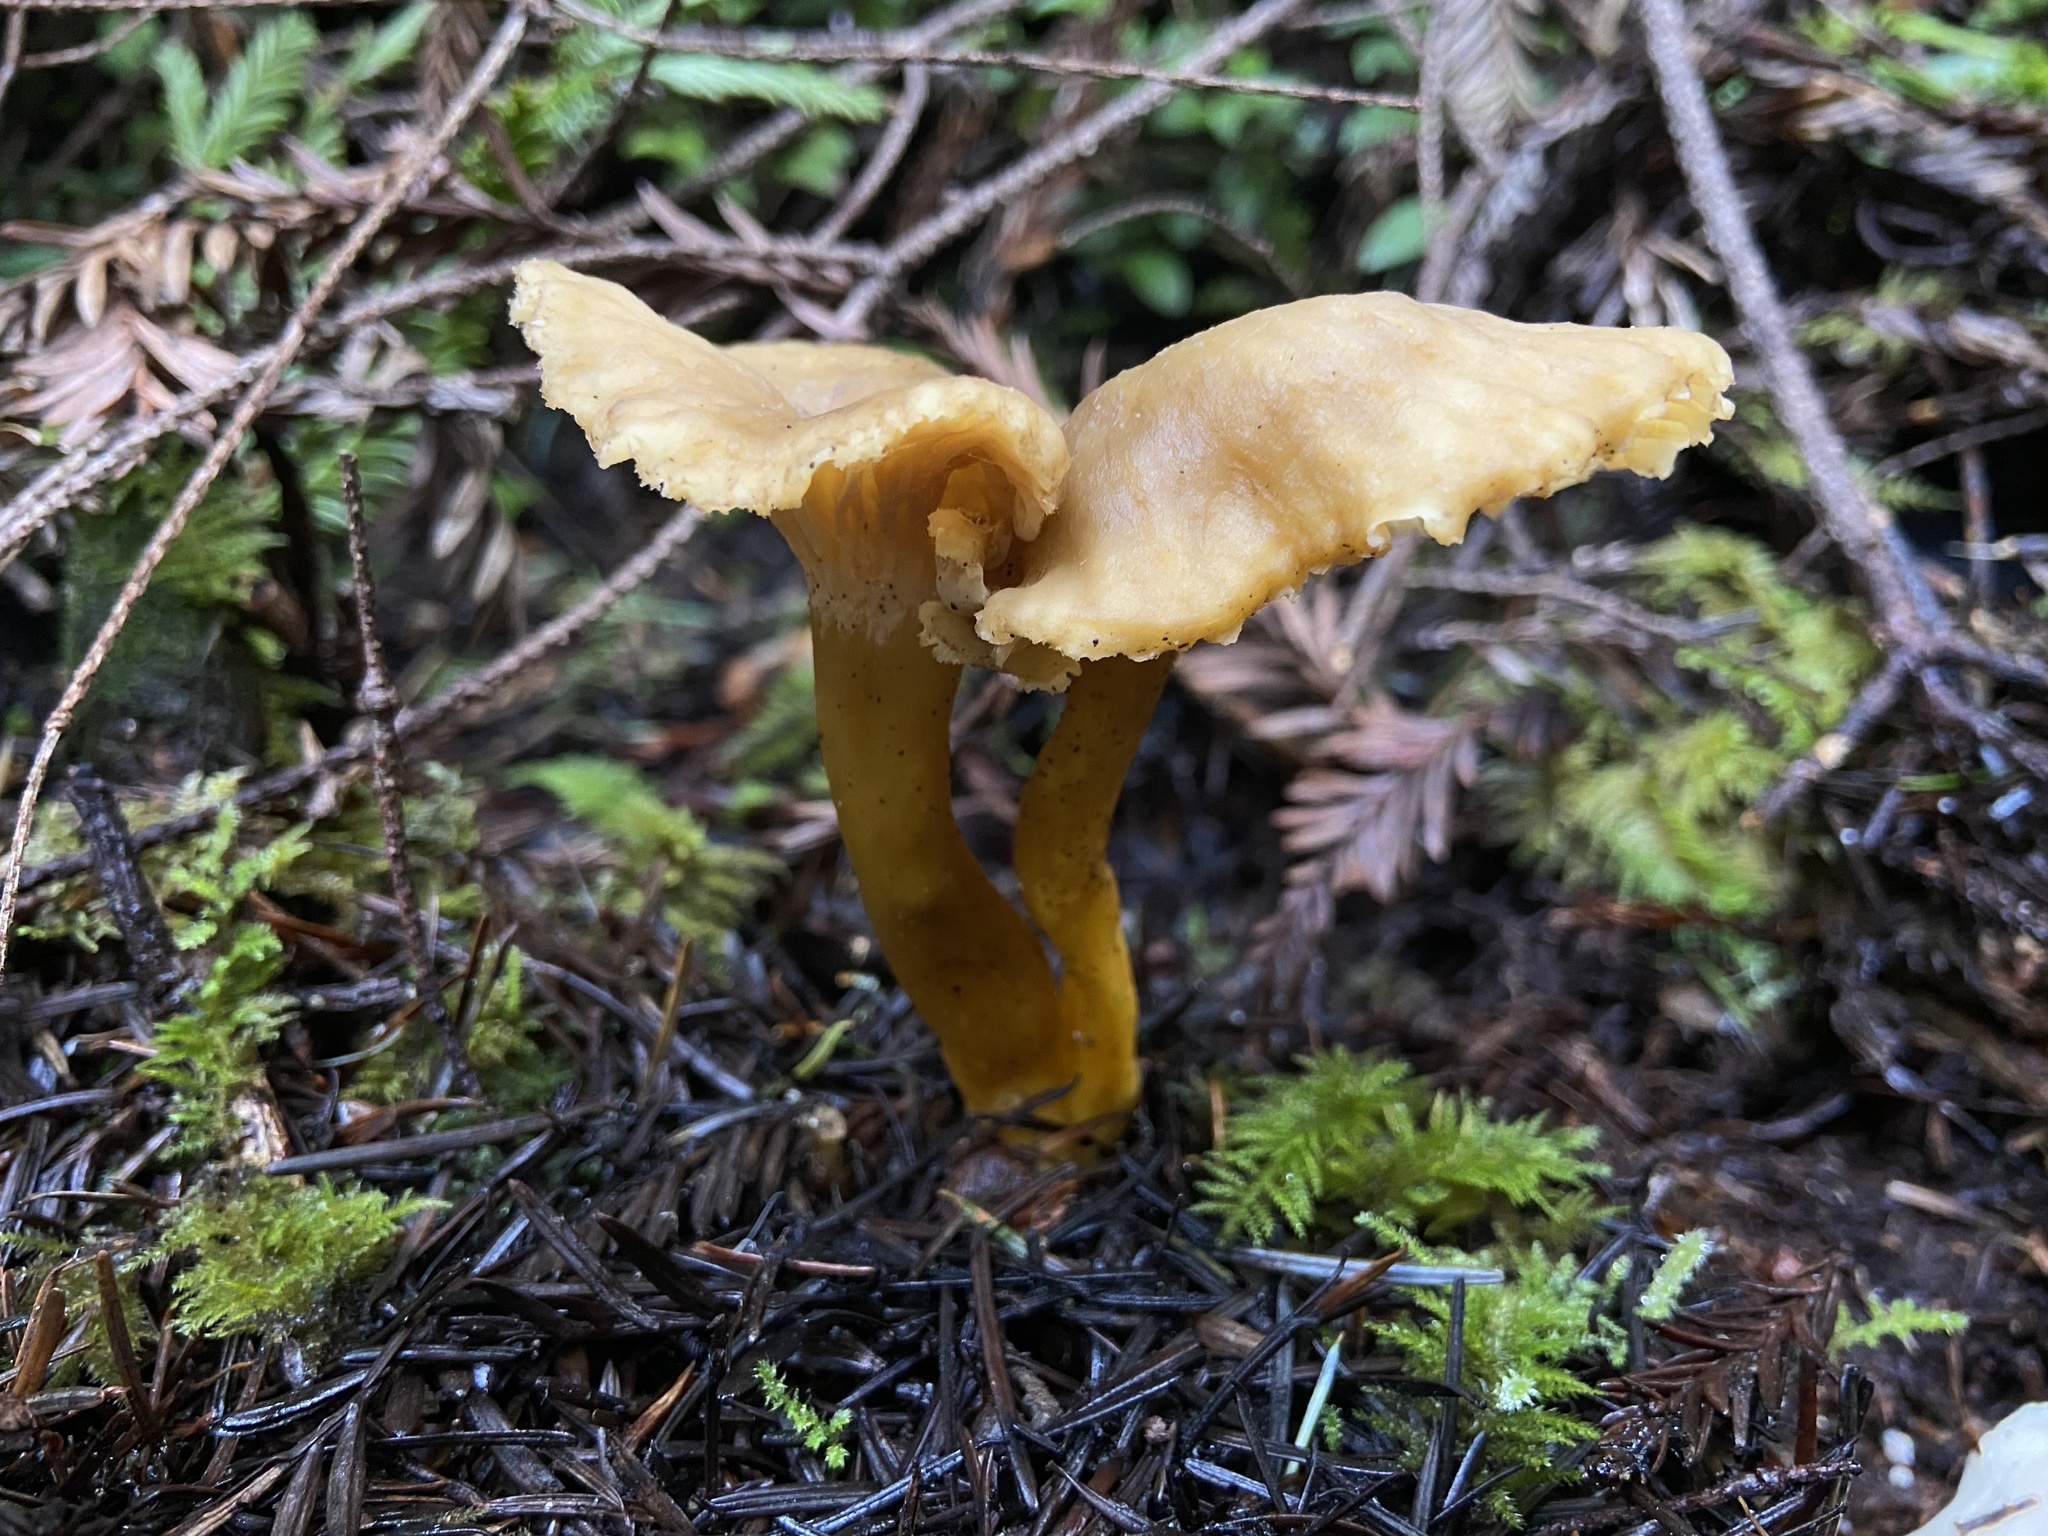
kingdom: Fungi
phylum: Basidiomycota
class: Agaricomycetes
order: Cantharellales
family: Hydnaceae
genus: Craterellus
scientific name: Craterellus tubaeformis
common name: Yellowfoot
